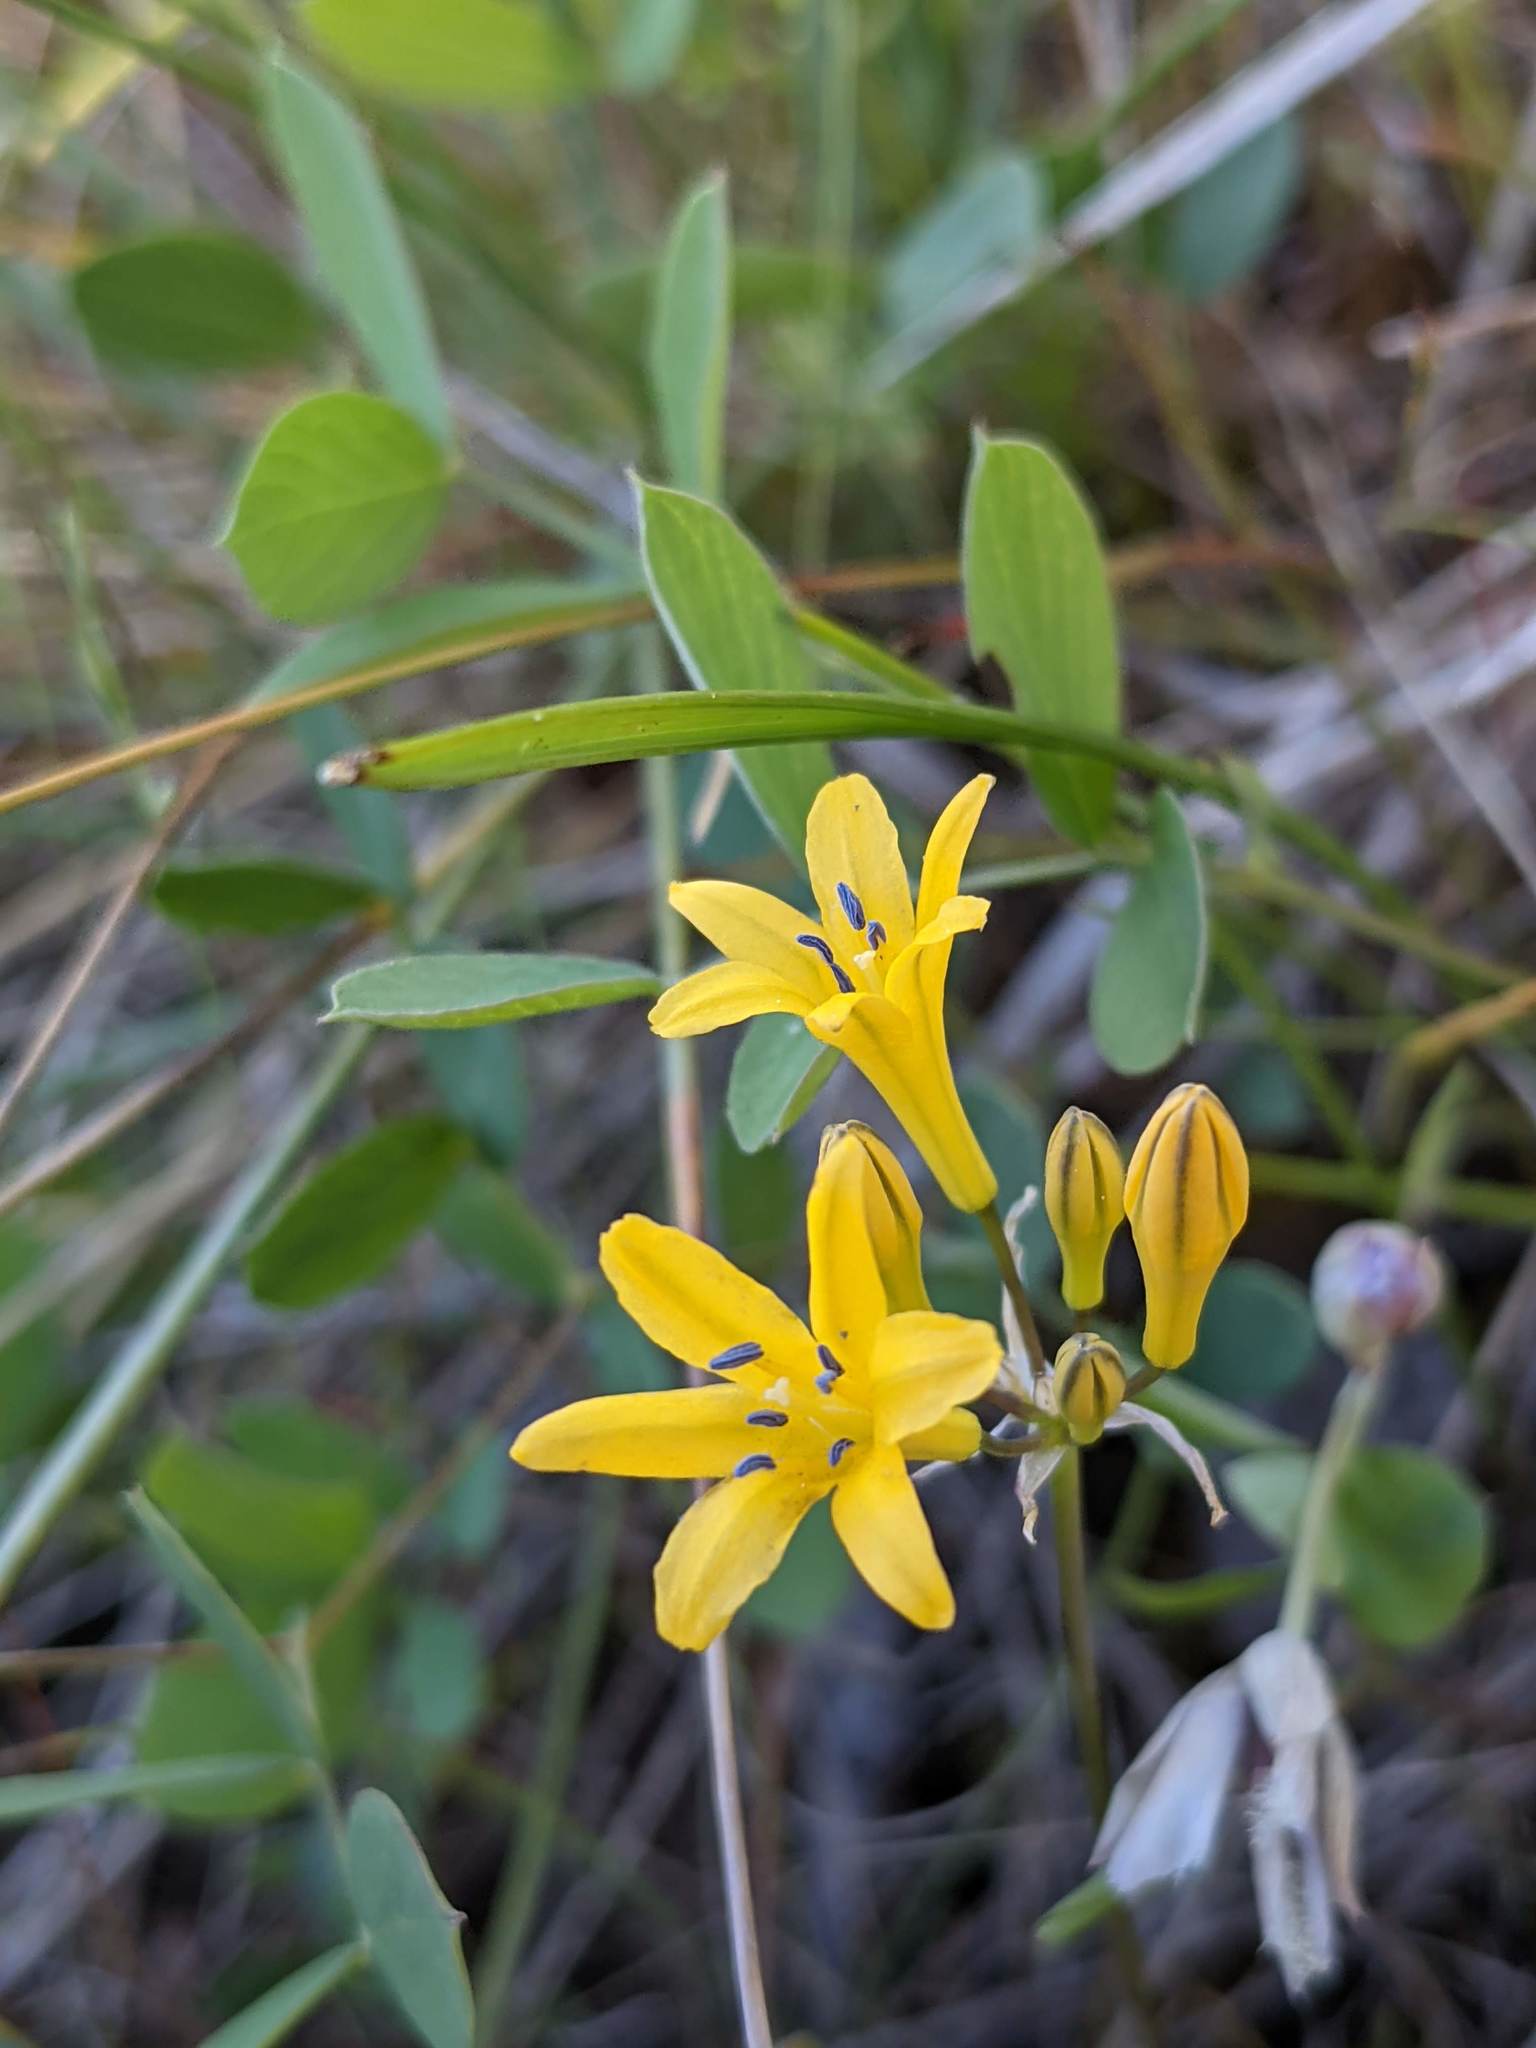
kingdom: Plantae
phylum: Tracheophyta
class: Liliopsida
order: Asparagales
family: Asparagaceae
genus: Triteleia
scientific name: Triteleia crocea
